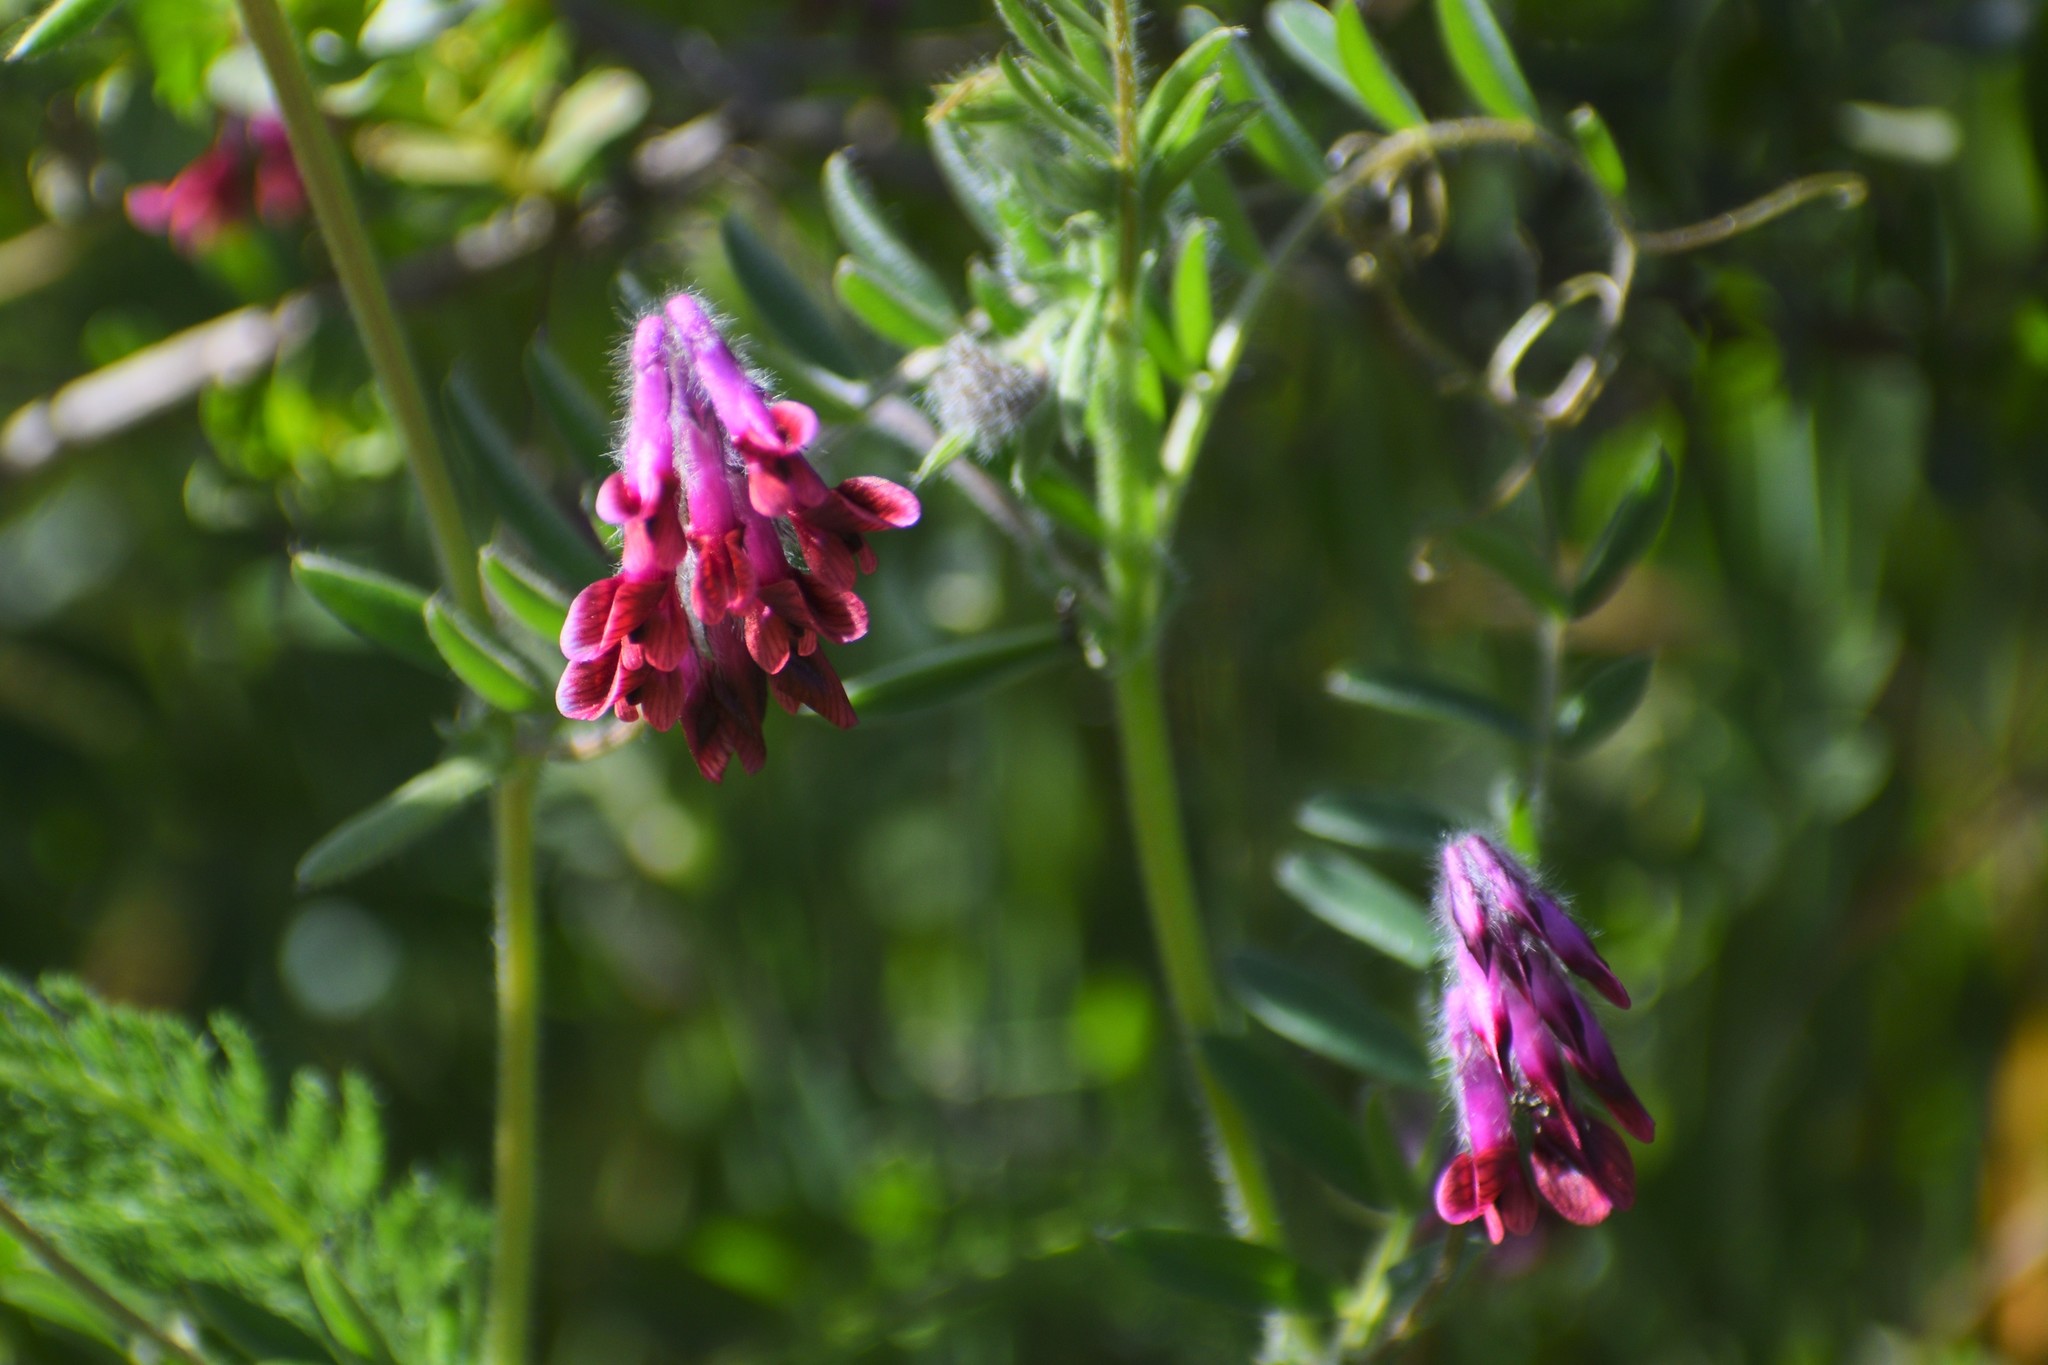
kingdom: Plantae
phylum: Tracheophyta
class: Magnoliopsida
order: Fabales
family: Fabaceae
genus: Vicia
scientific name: Vicia benghalensis
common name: Purple vetch
